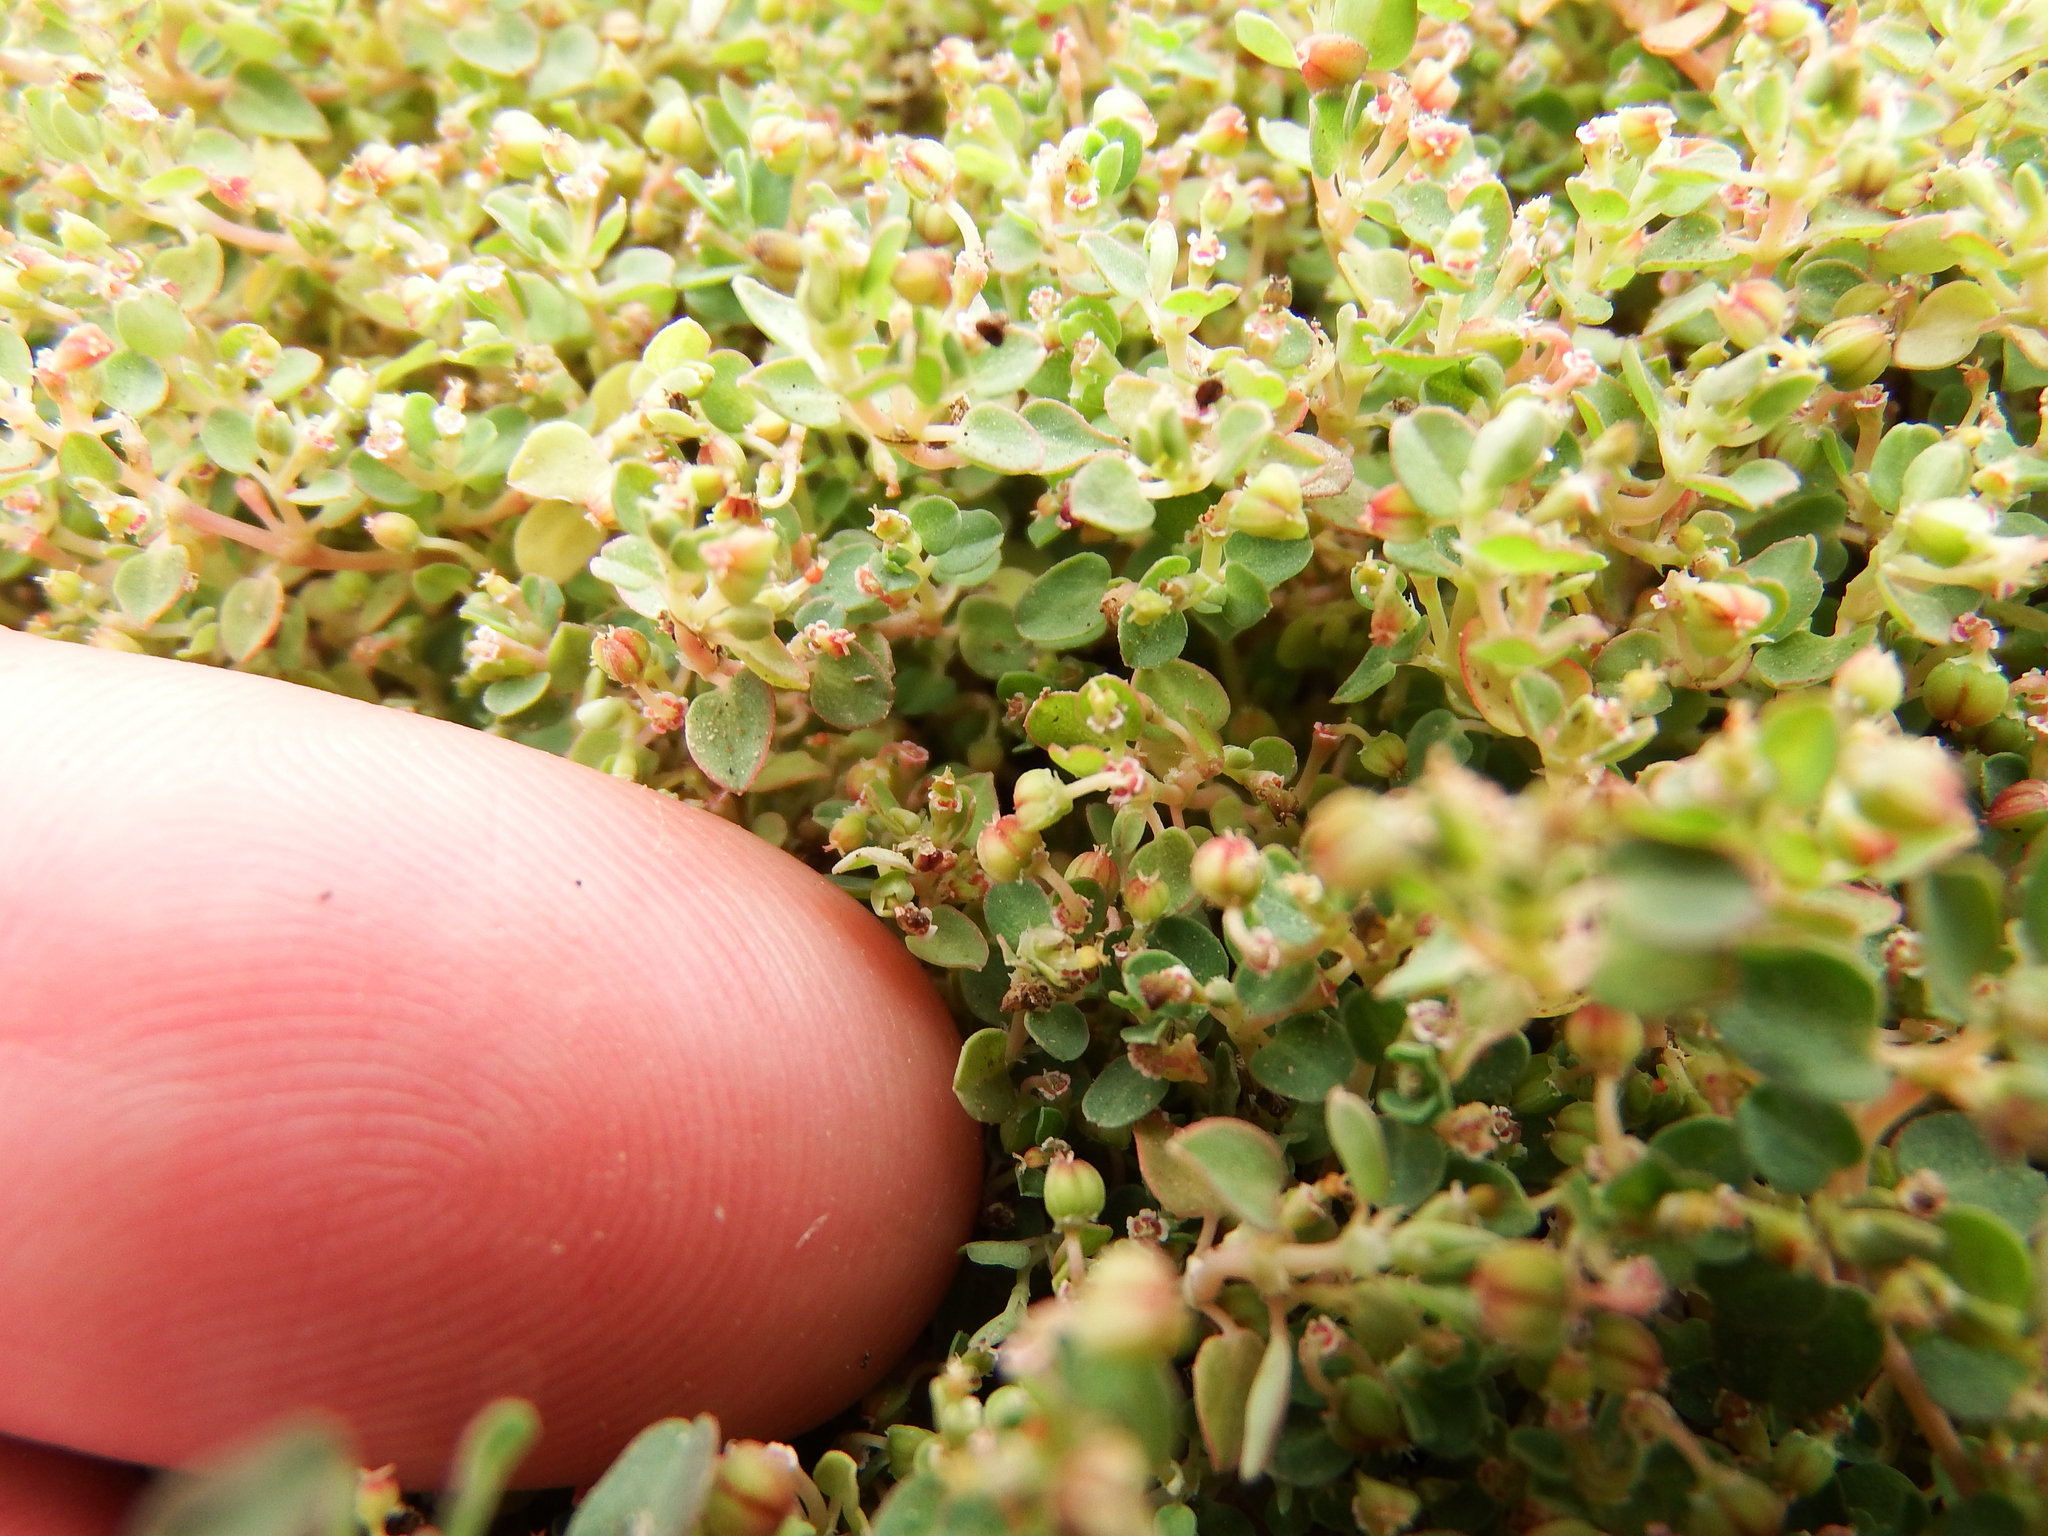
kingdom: Plantae
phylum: Tracheophyta
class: Magnoliopsida
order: Malpighiales
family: Euphorbiaceae
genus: Euphorbia
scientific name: Euphorbia serpens
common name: Matted sandmat
